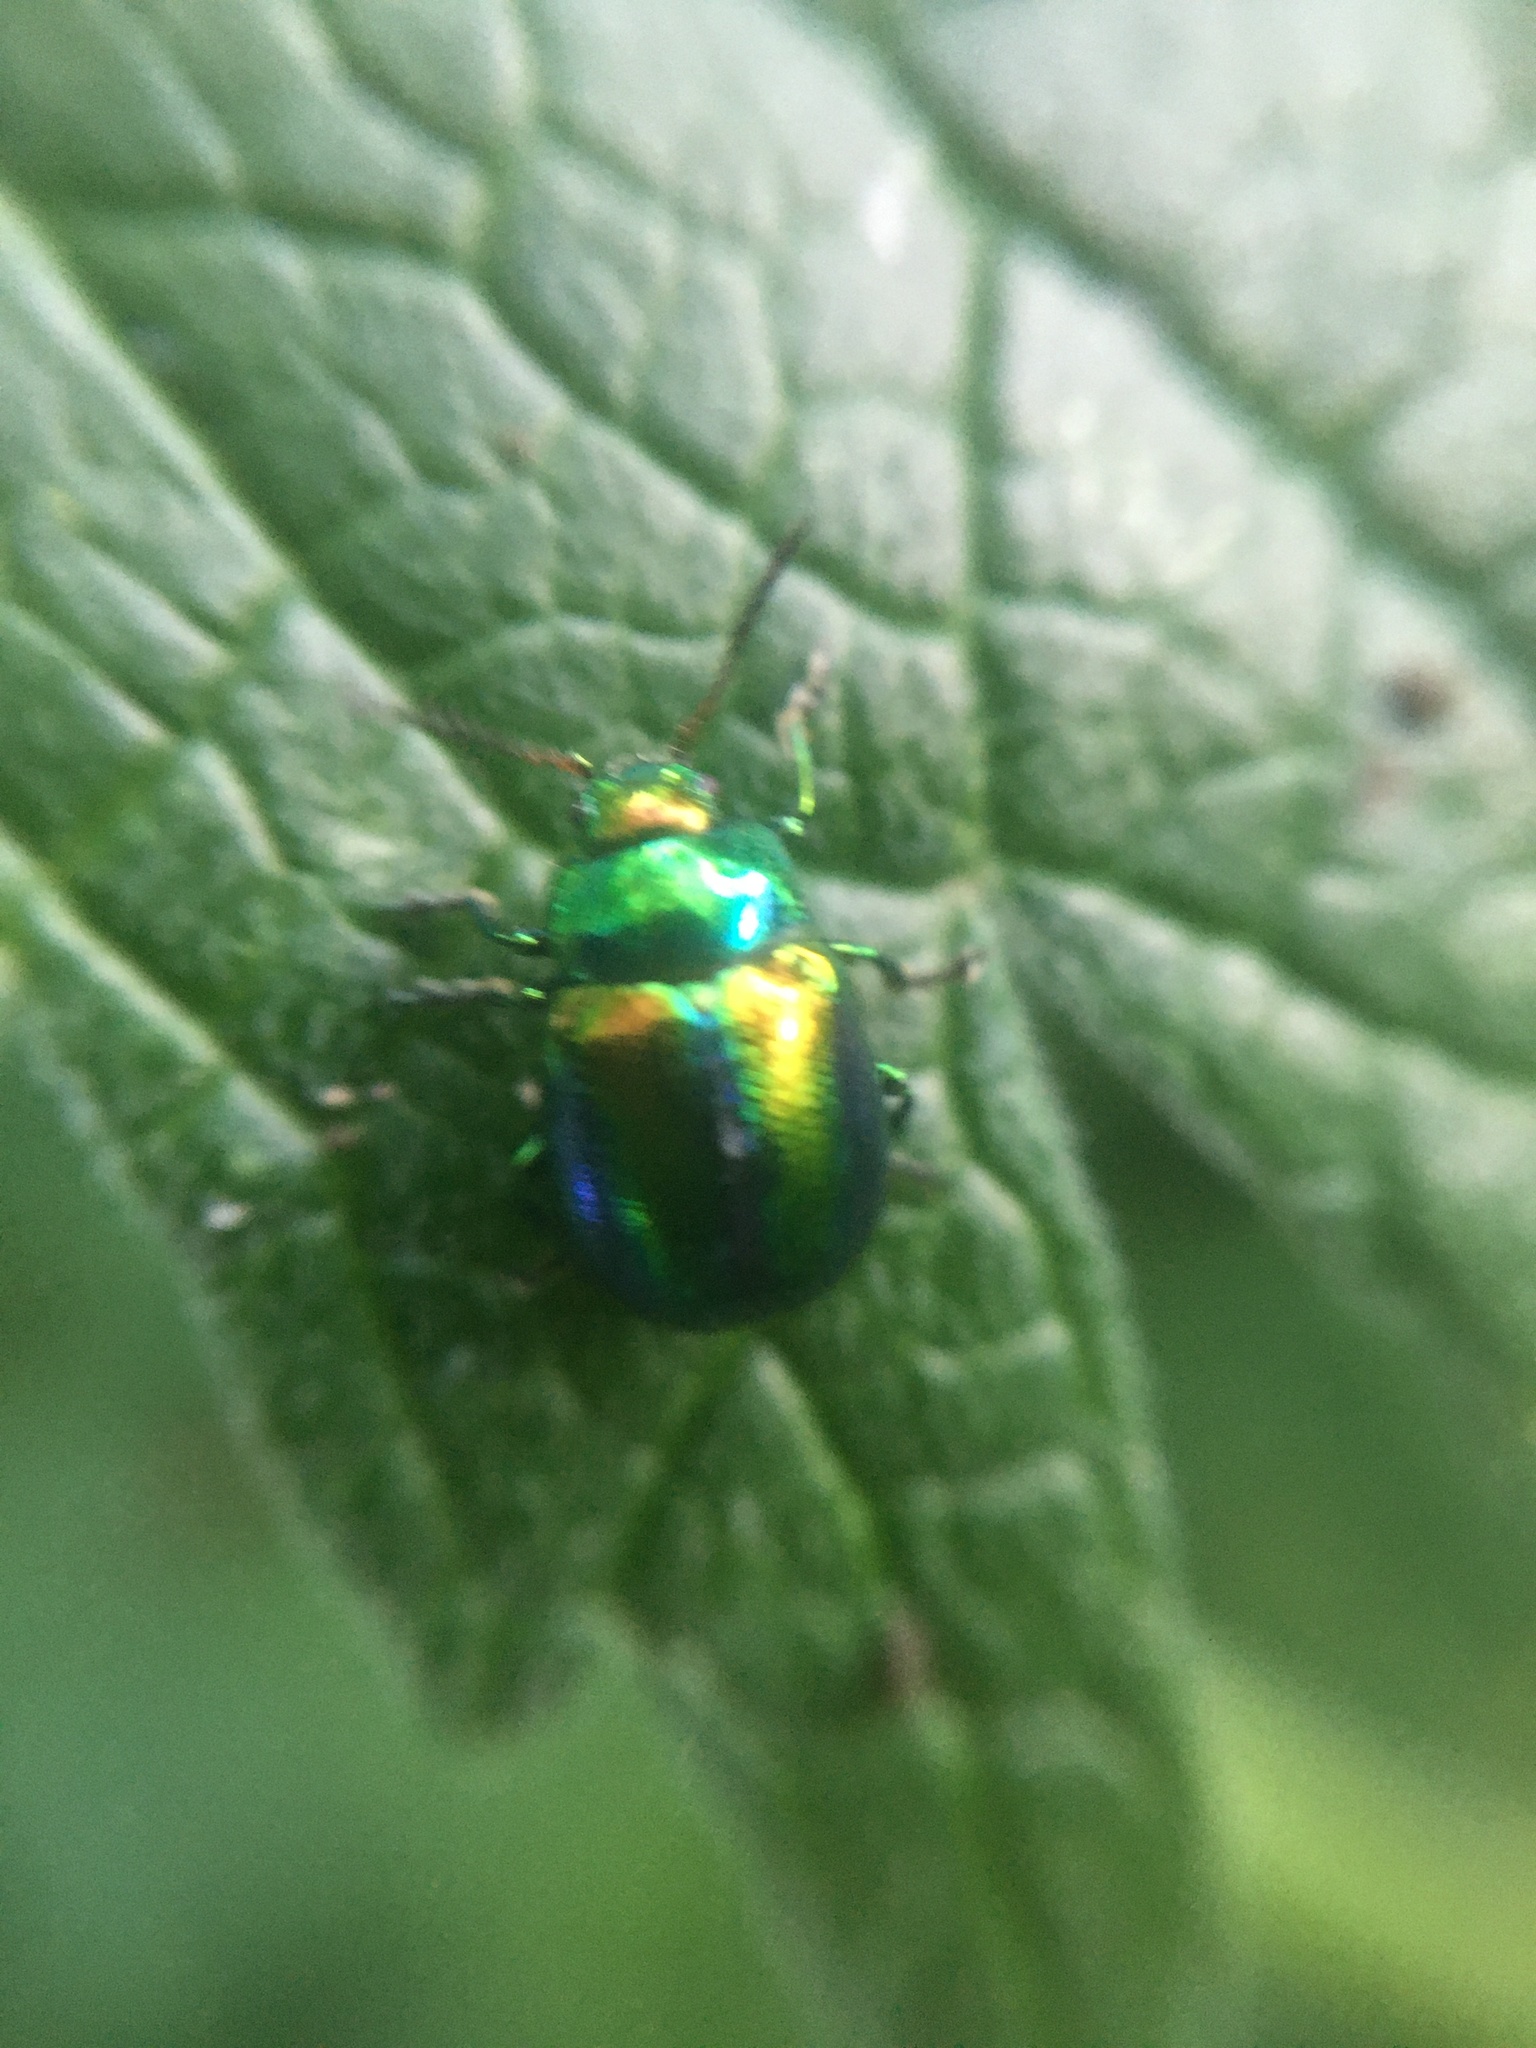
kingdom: Animalia
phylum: Arthropoda
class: Insecta
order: Coleoptera
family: Chrysomelidae
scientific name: Chrysomelidae
